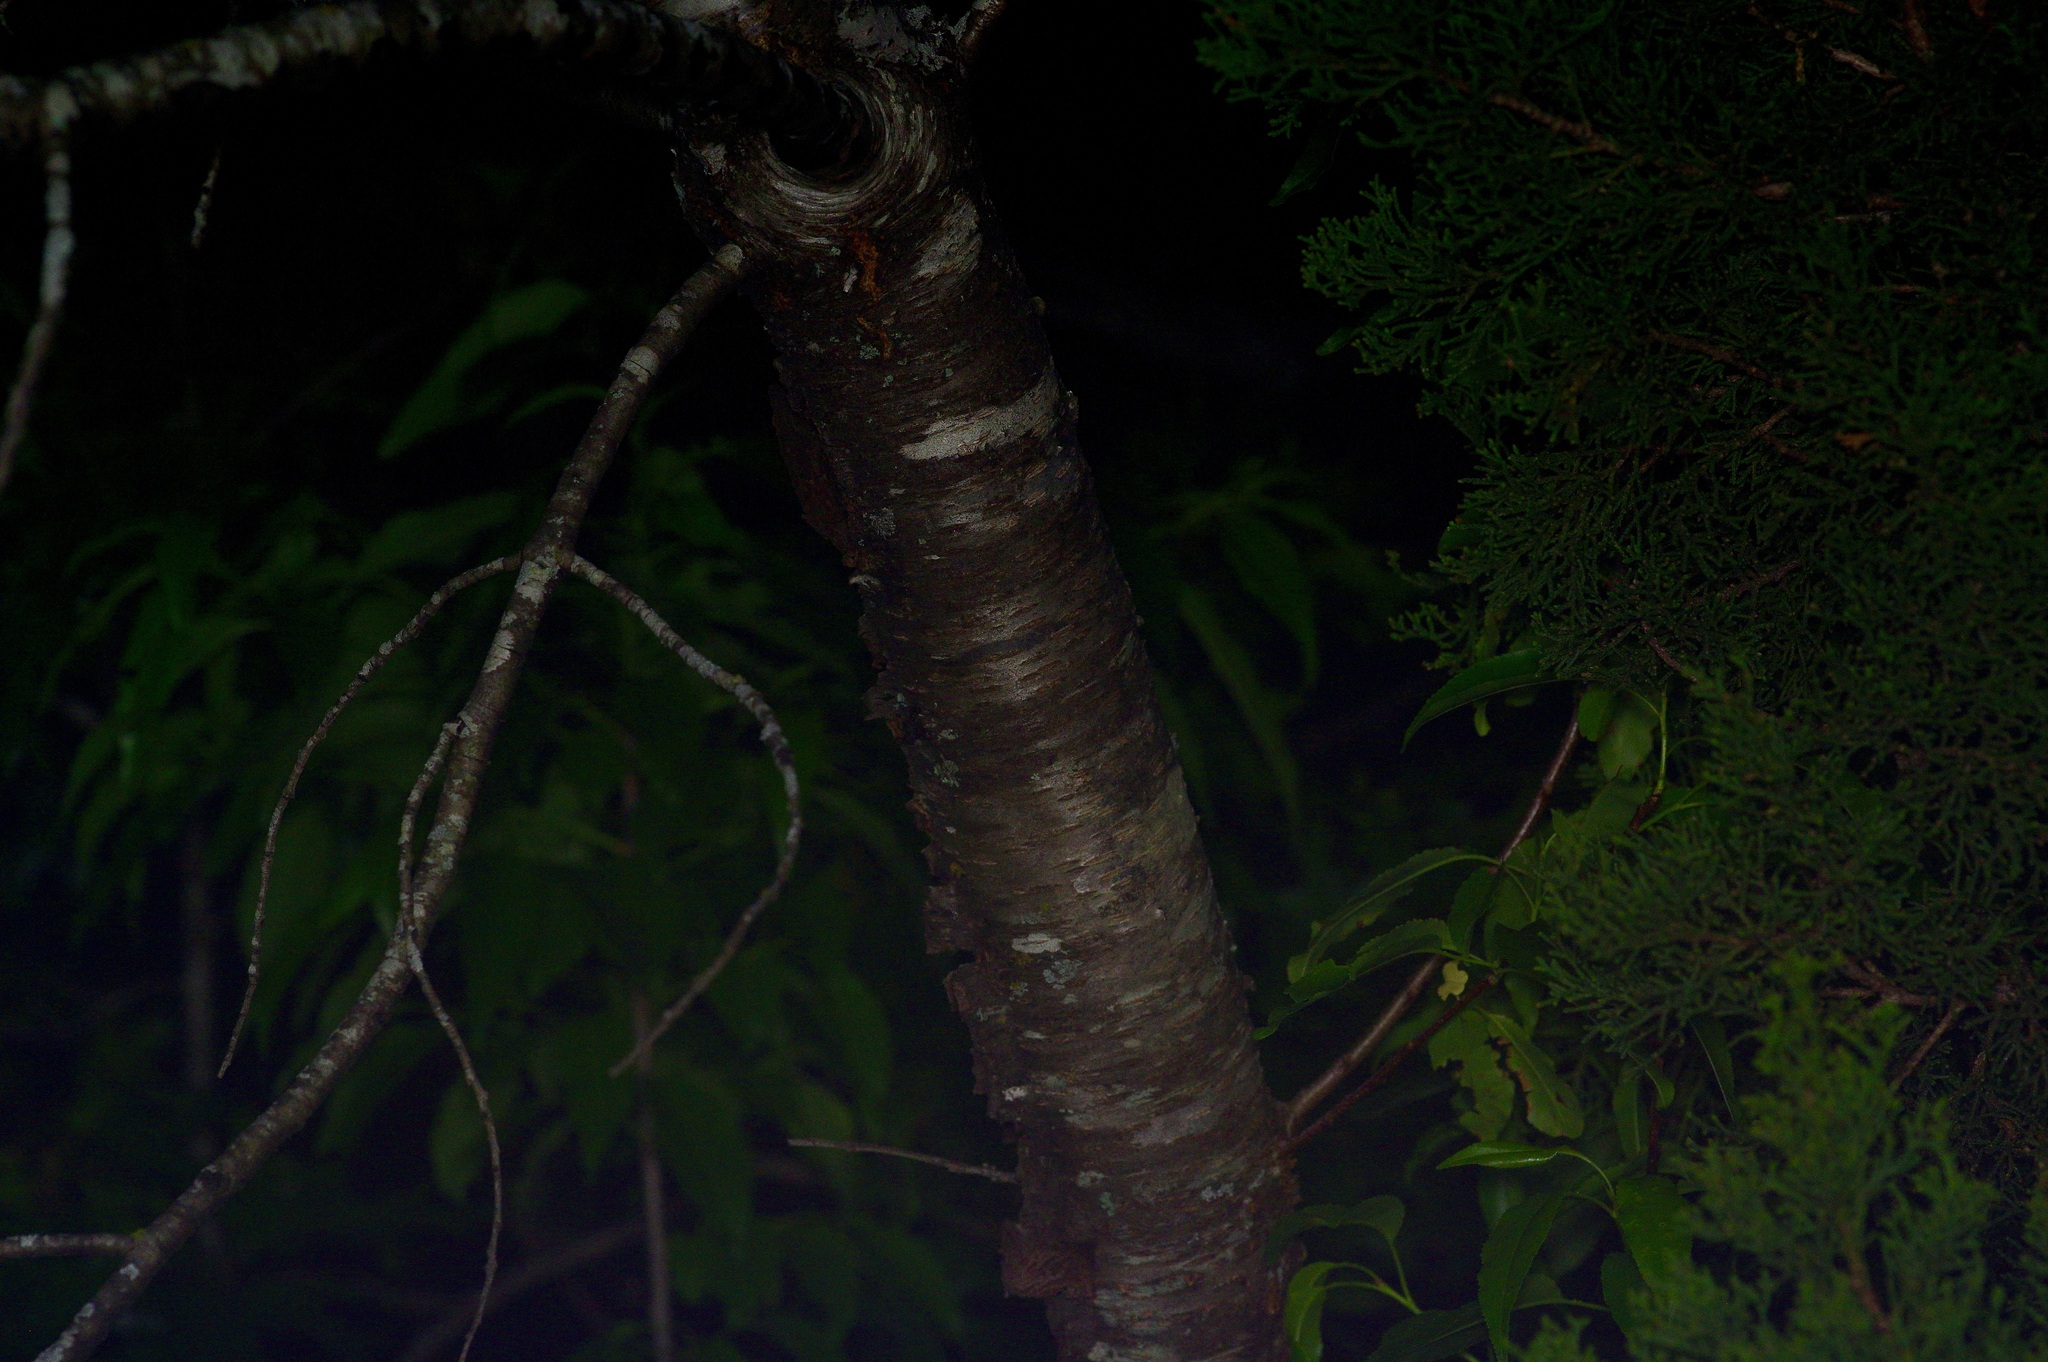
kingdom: Plantae
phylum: Tracheophyta
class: Magnoliopsida
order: Rosales
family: Rosaceae
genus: Prunus
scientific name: Prunus serotina
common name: Black cherry
